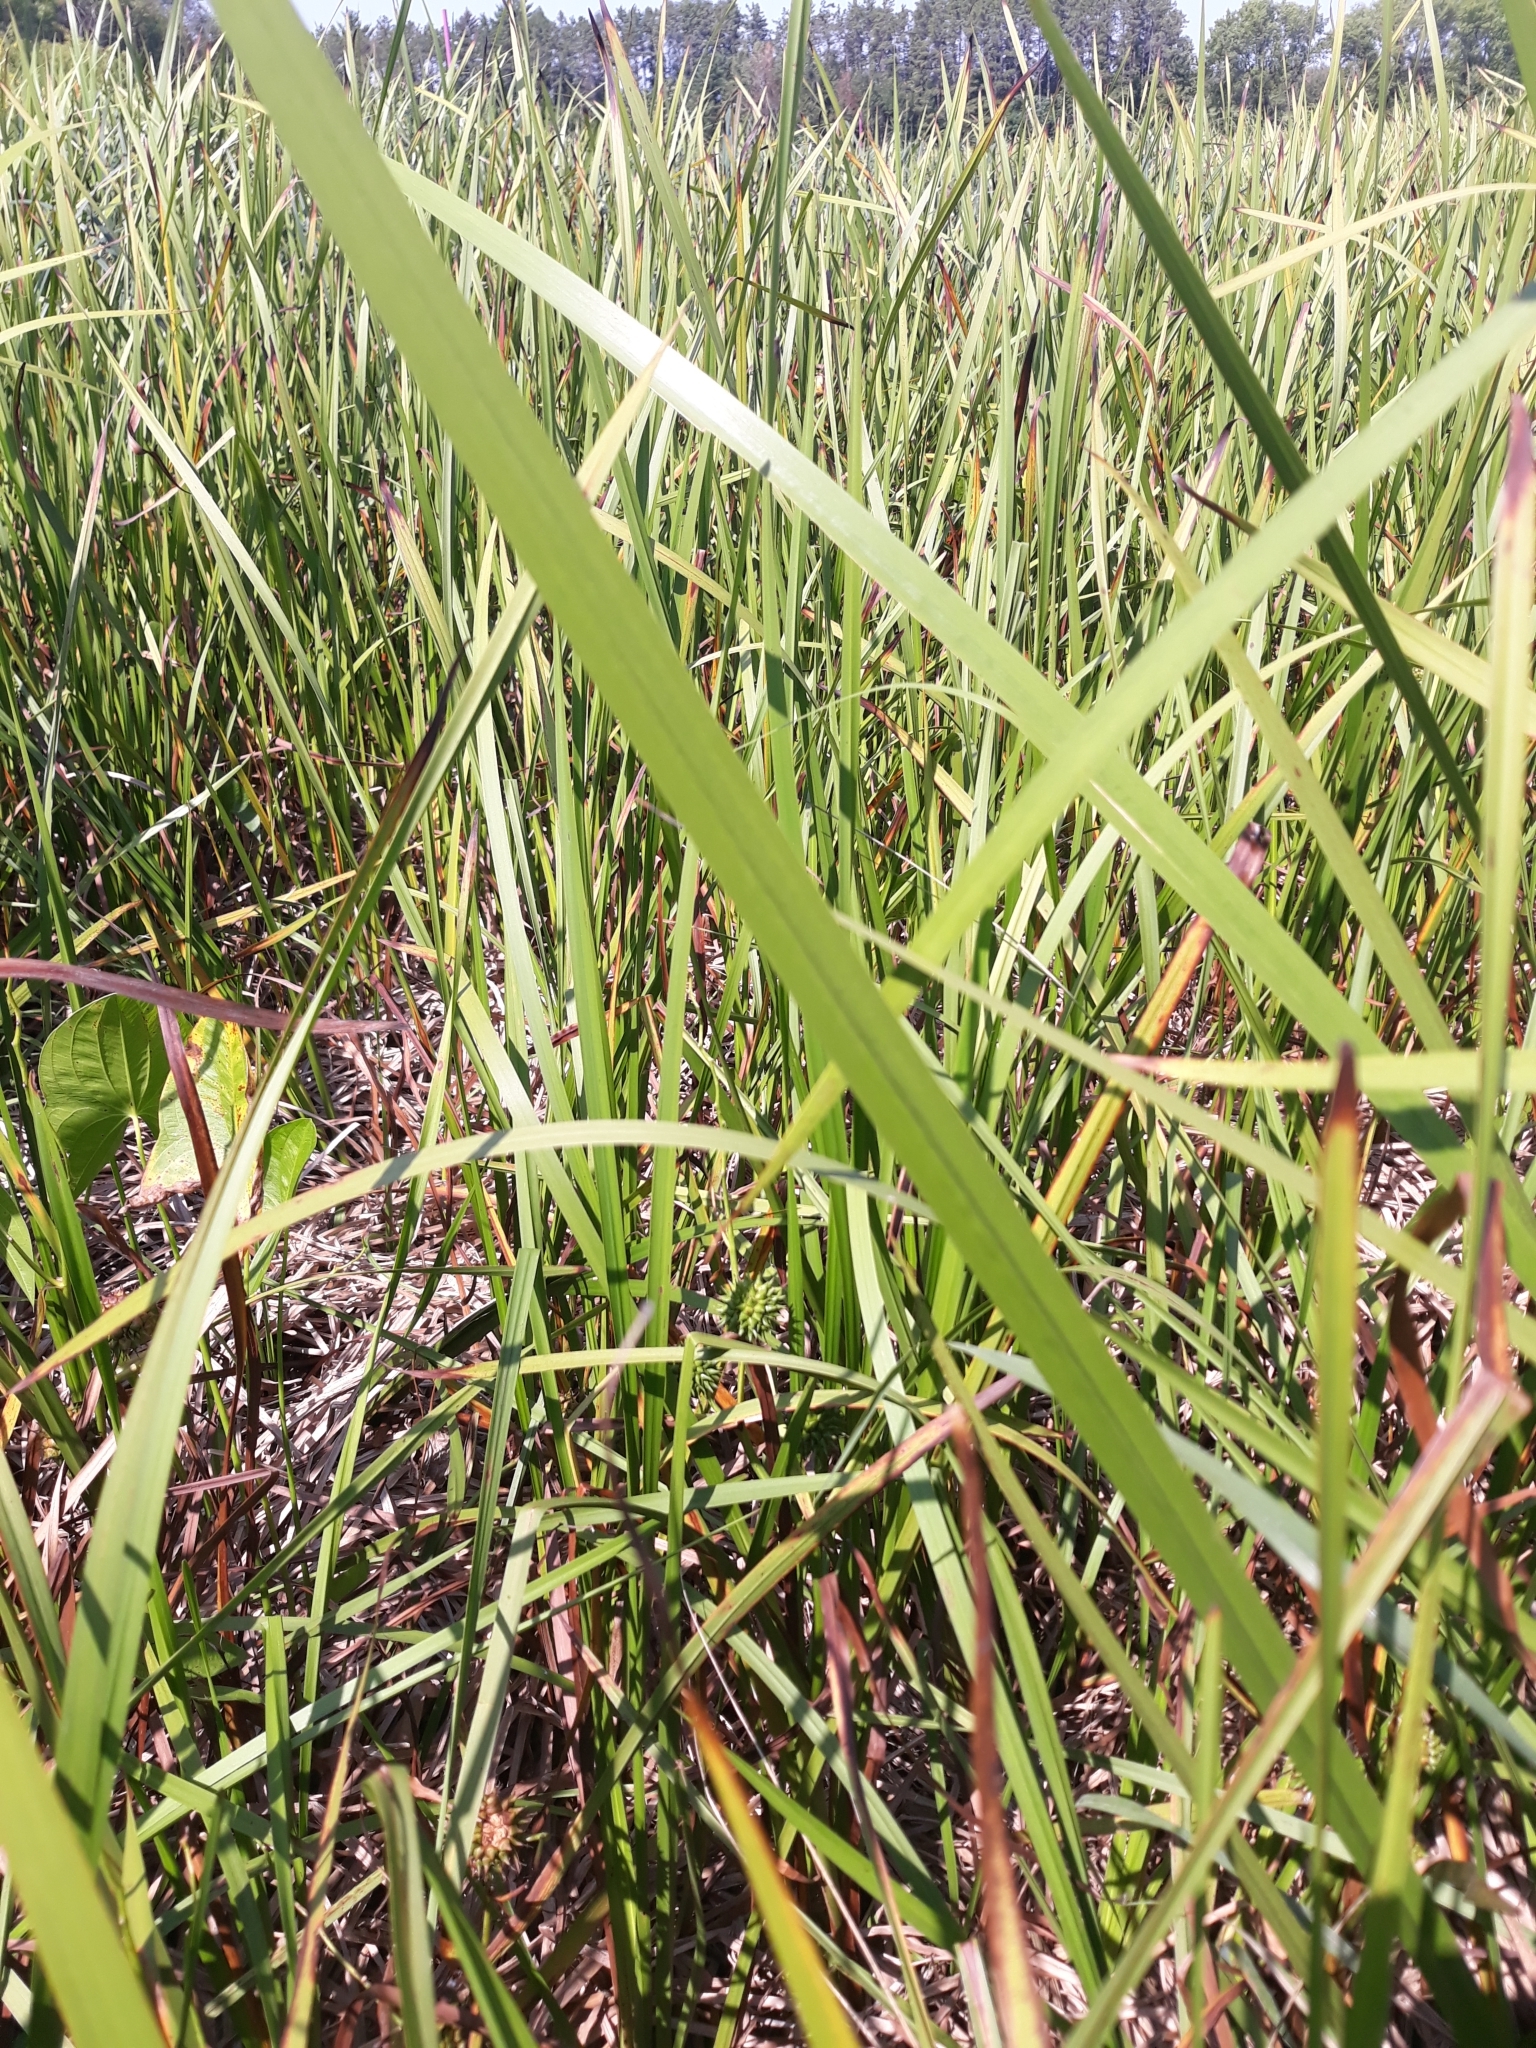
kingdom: Plantae
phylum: Tracheophyta
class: Liliopsida
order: Poales
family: Typhaceae
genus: Sparganium
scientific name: Sparganium eurycarpum
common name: Broad-fruited burreed
